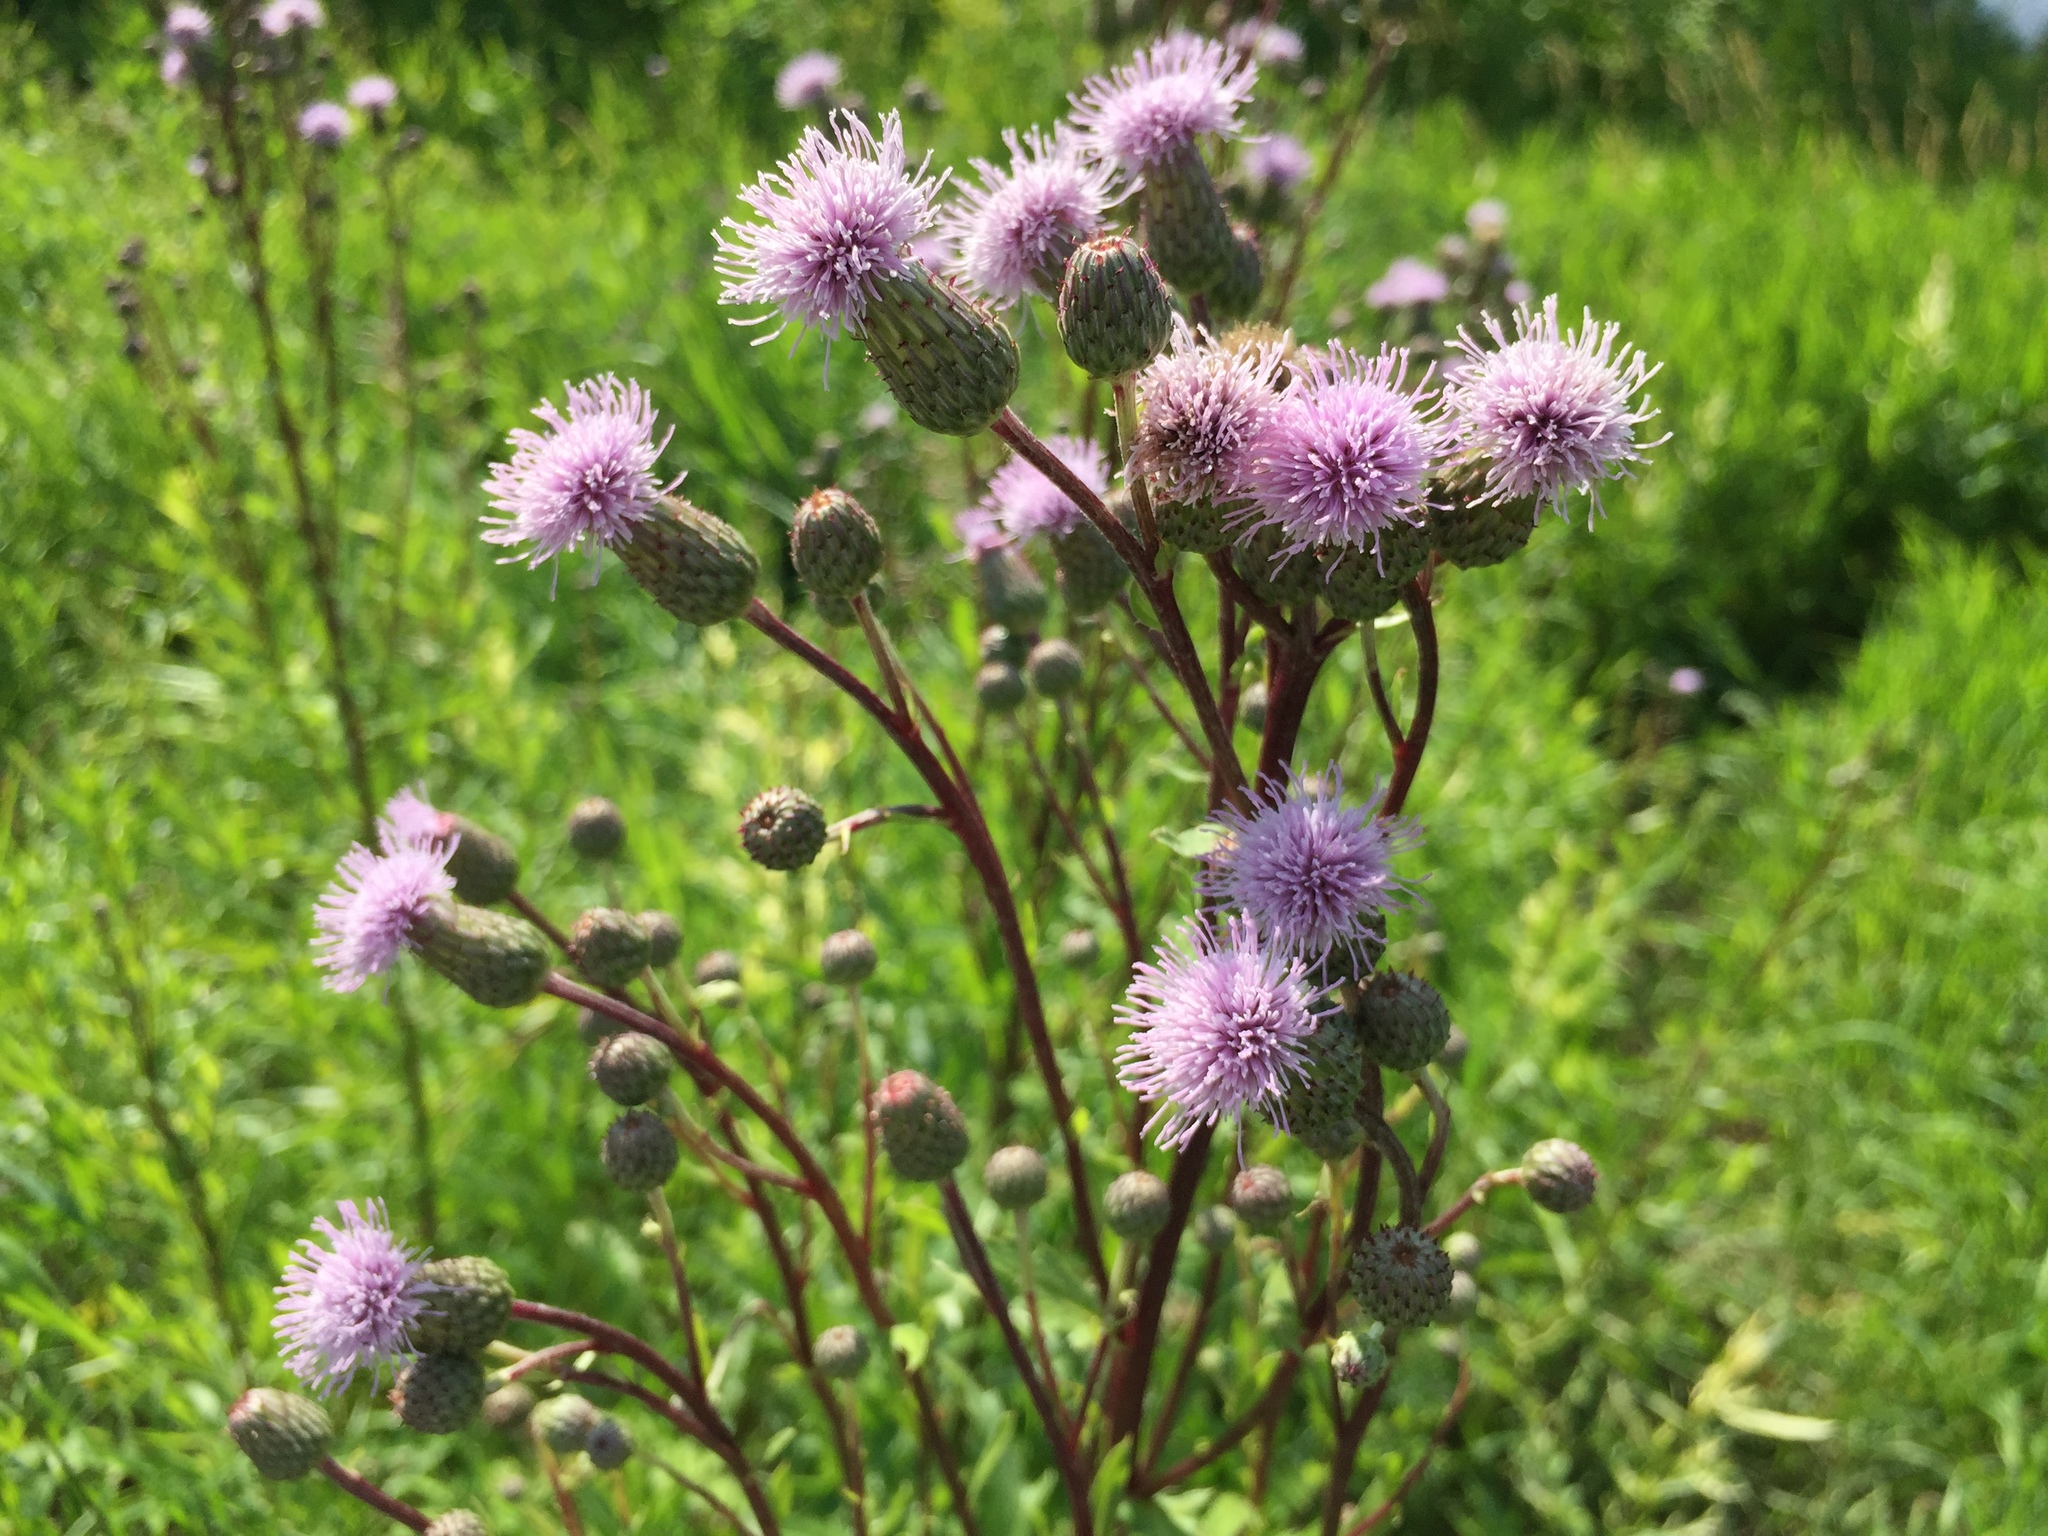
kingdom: Plantae
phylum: Tracheophyta
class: Magnoliopsida
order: Asterales
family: Asteraceae
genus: Cirsium
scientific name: Cirsium arvense
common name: Creeping thistle
